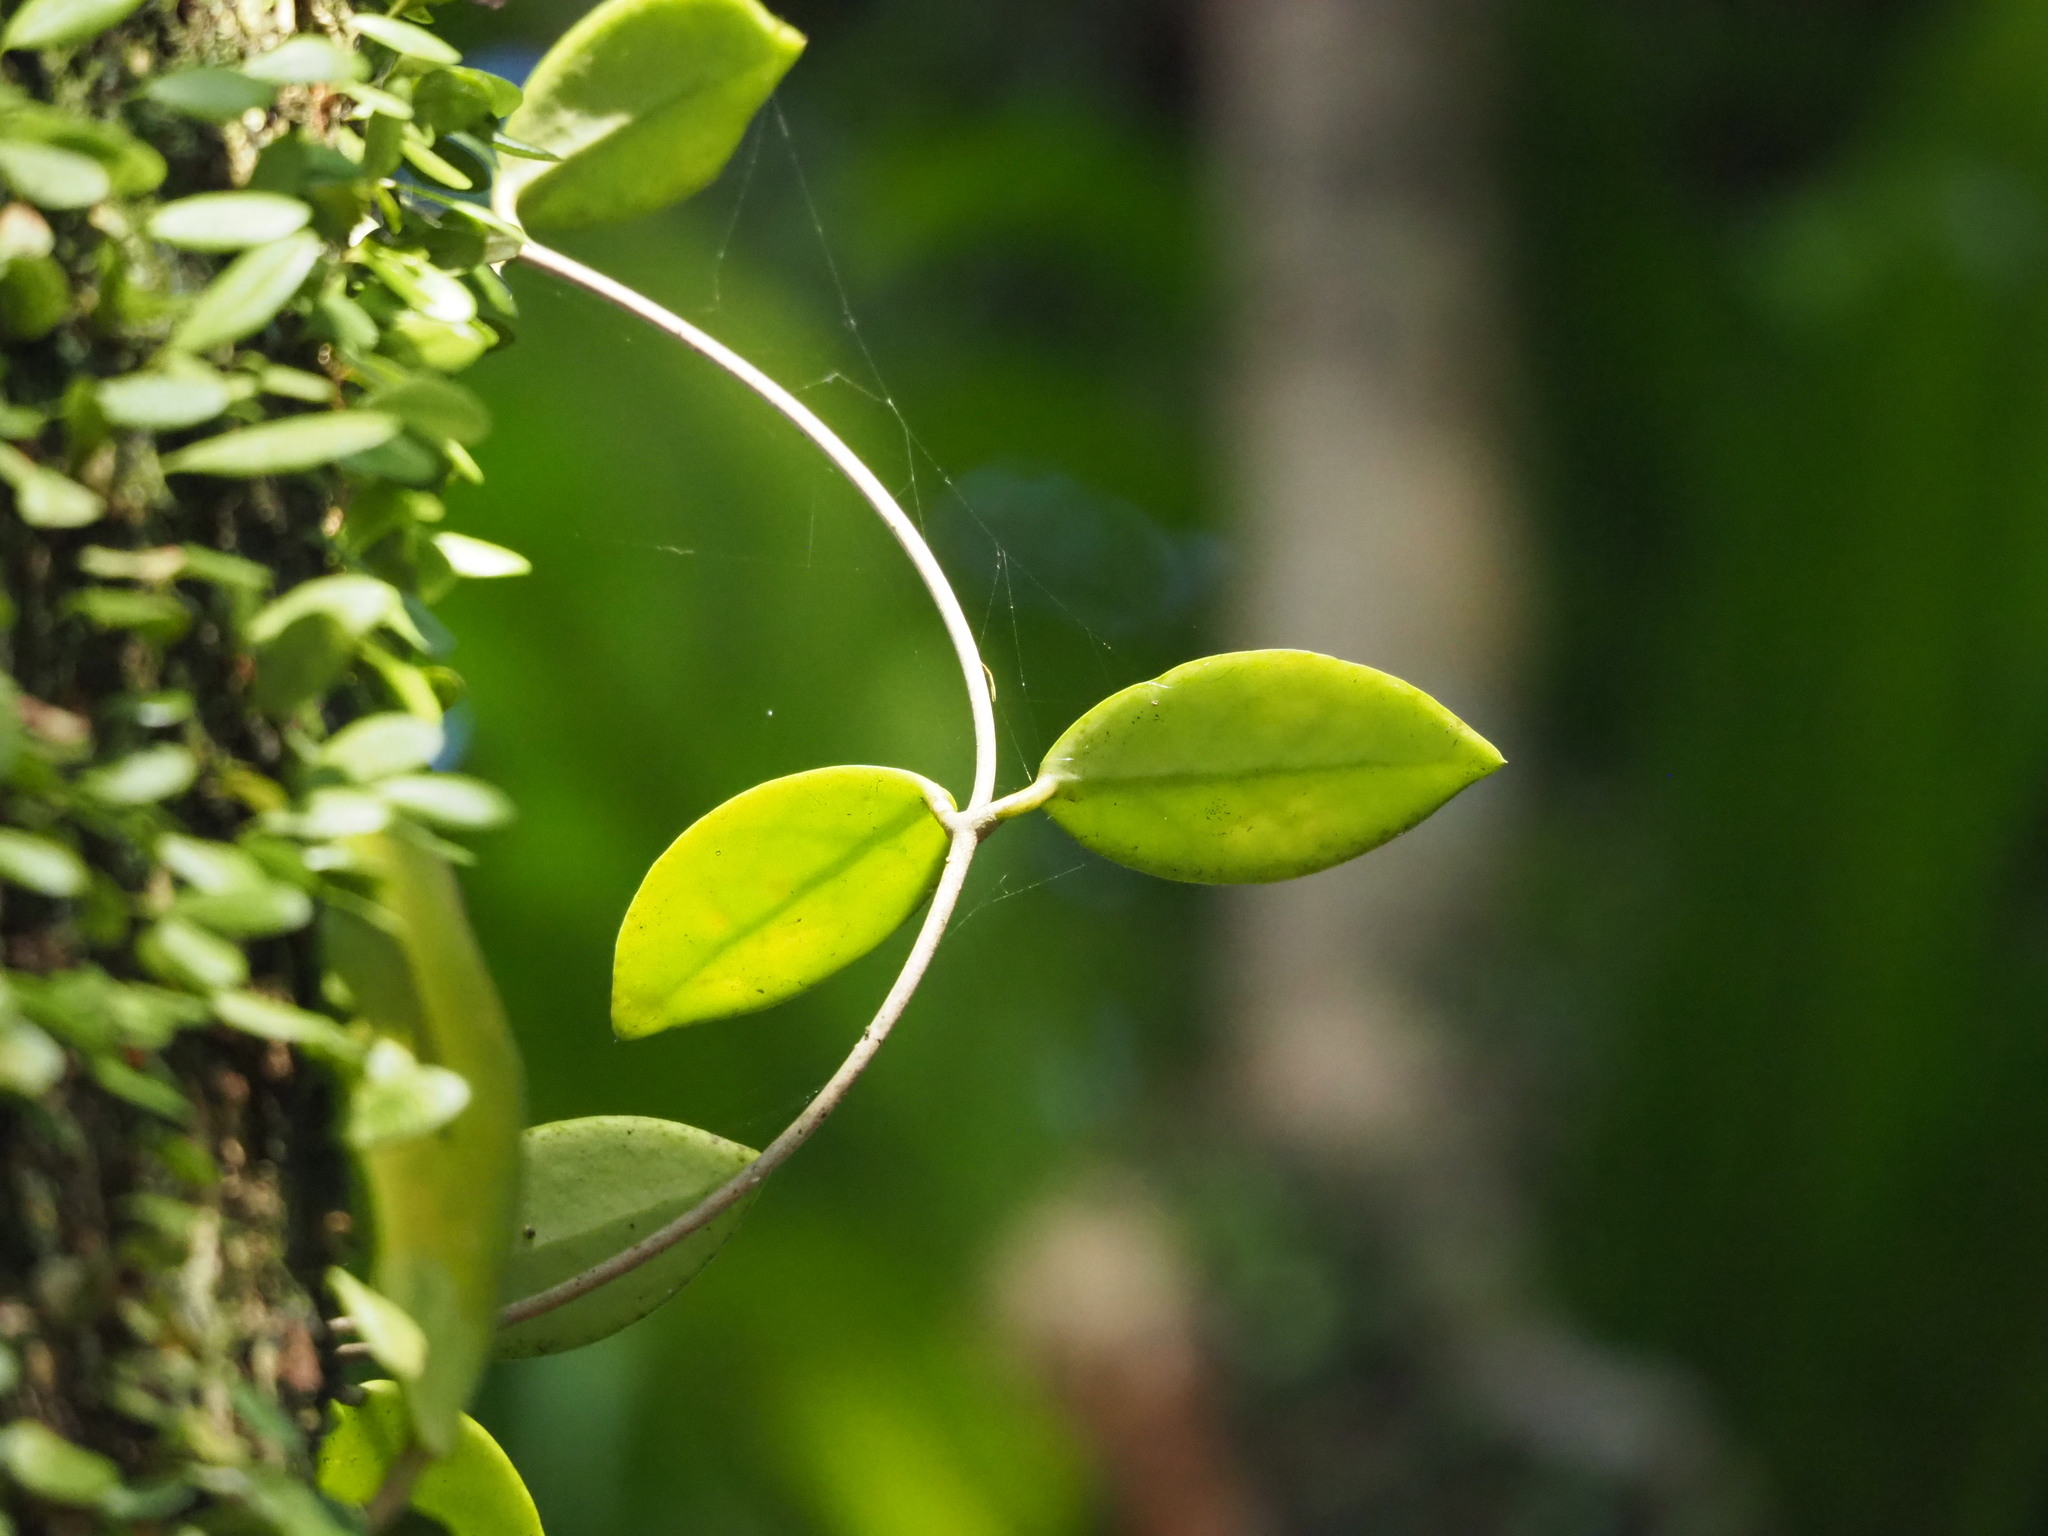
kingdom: Plantae
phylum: Tracheophyta
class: Magnoliopsida
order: Gentianales
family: Apocynaceae
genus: Hoya
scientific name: Hoya carnosa
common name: Honeyplant
